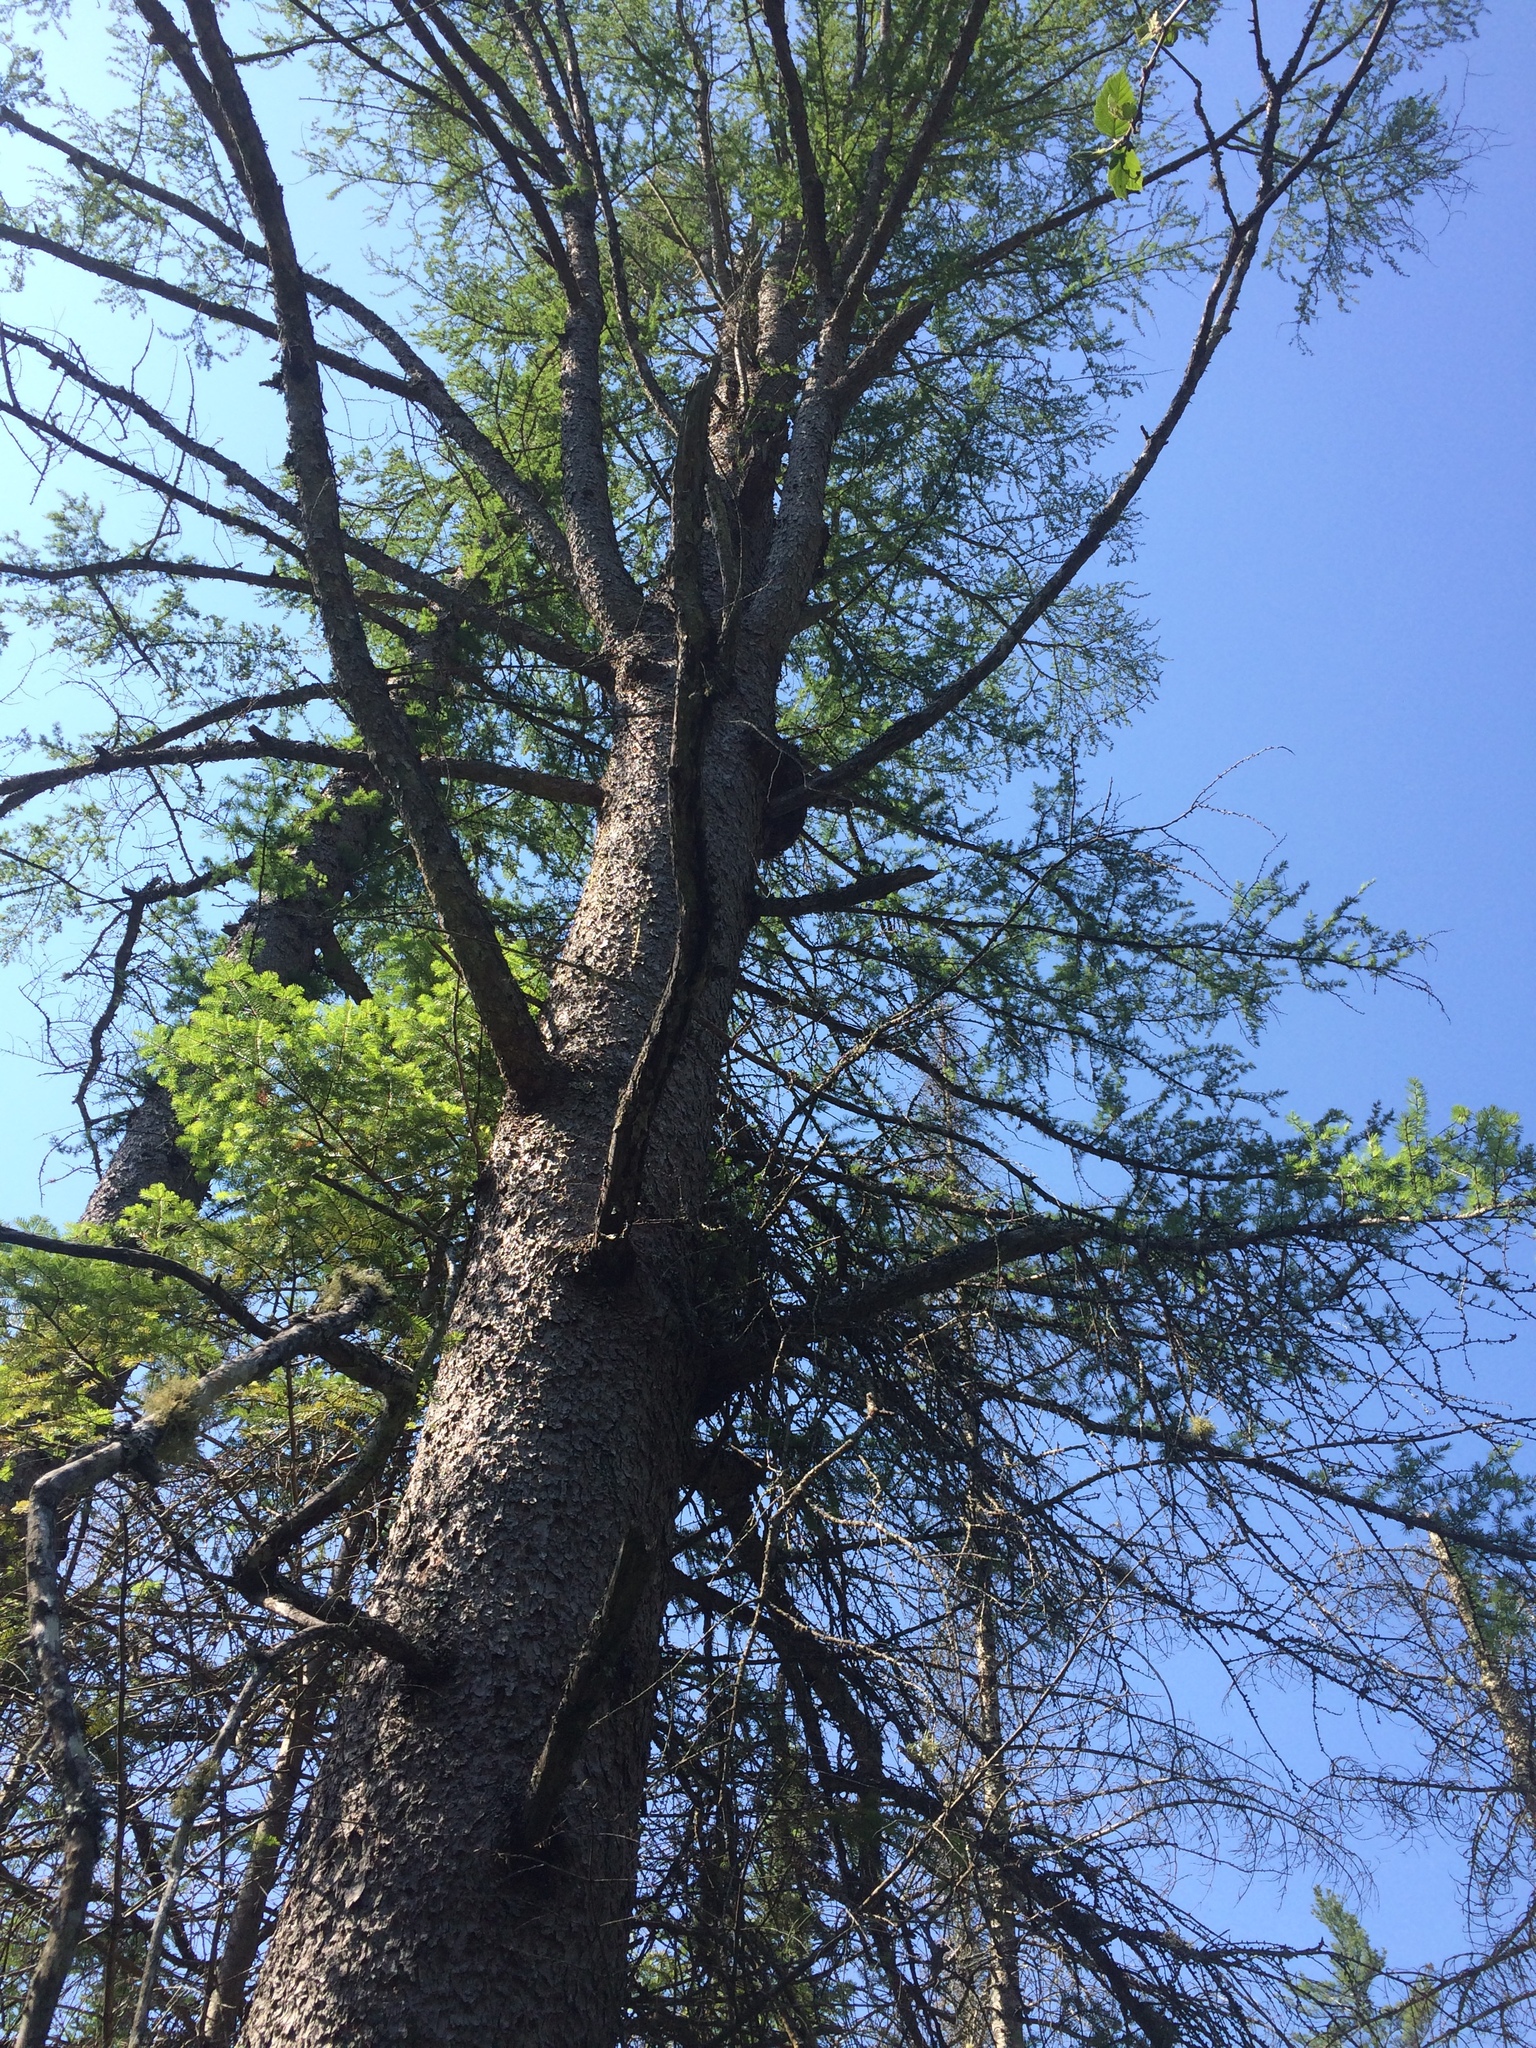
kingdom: Plantae
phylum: Tracheophyta
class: Pinopsida
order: Pinales
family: Pinaceae
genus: Larix
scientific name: Larix laricina
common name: American larch
